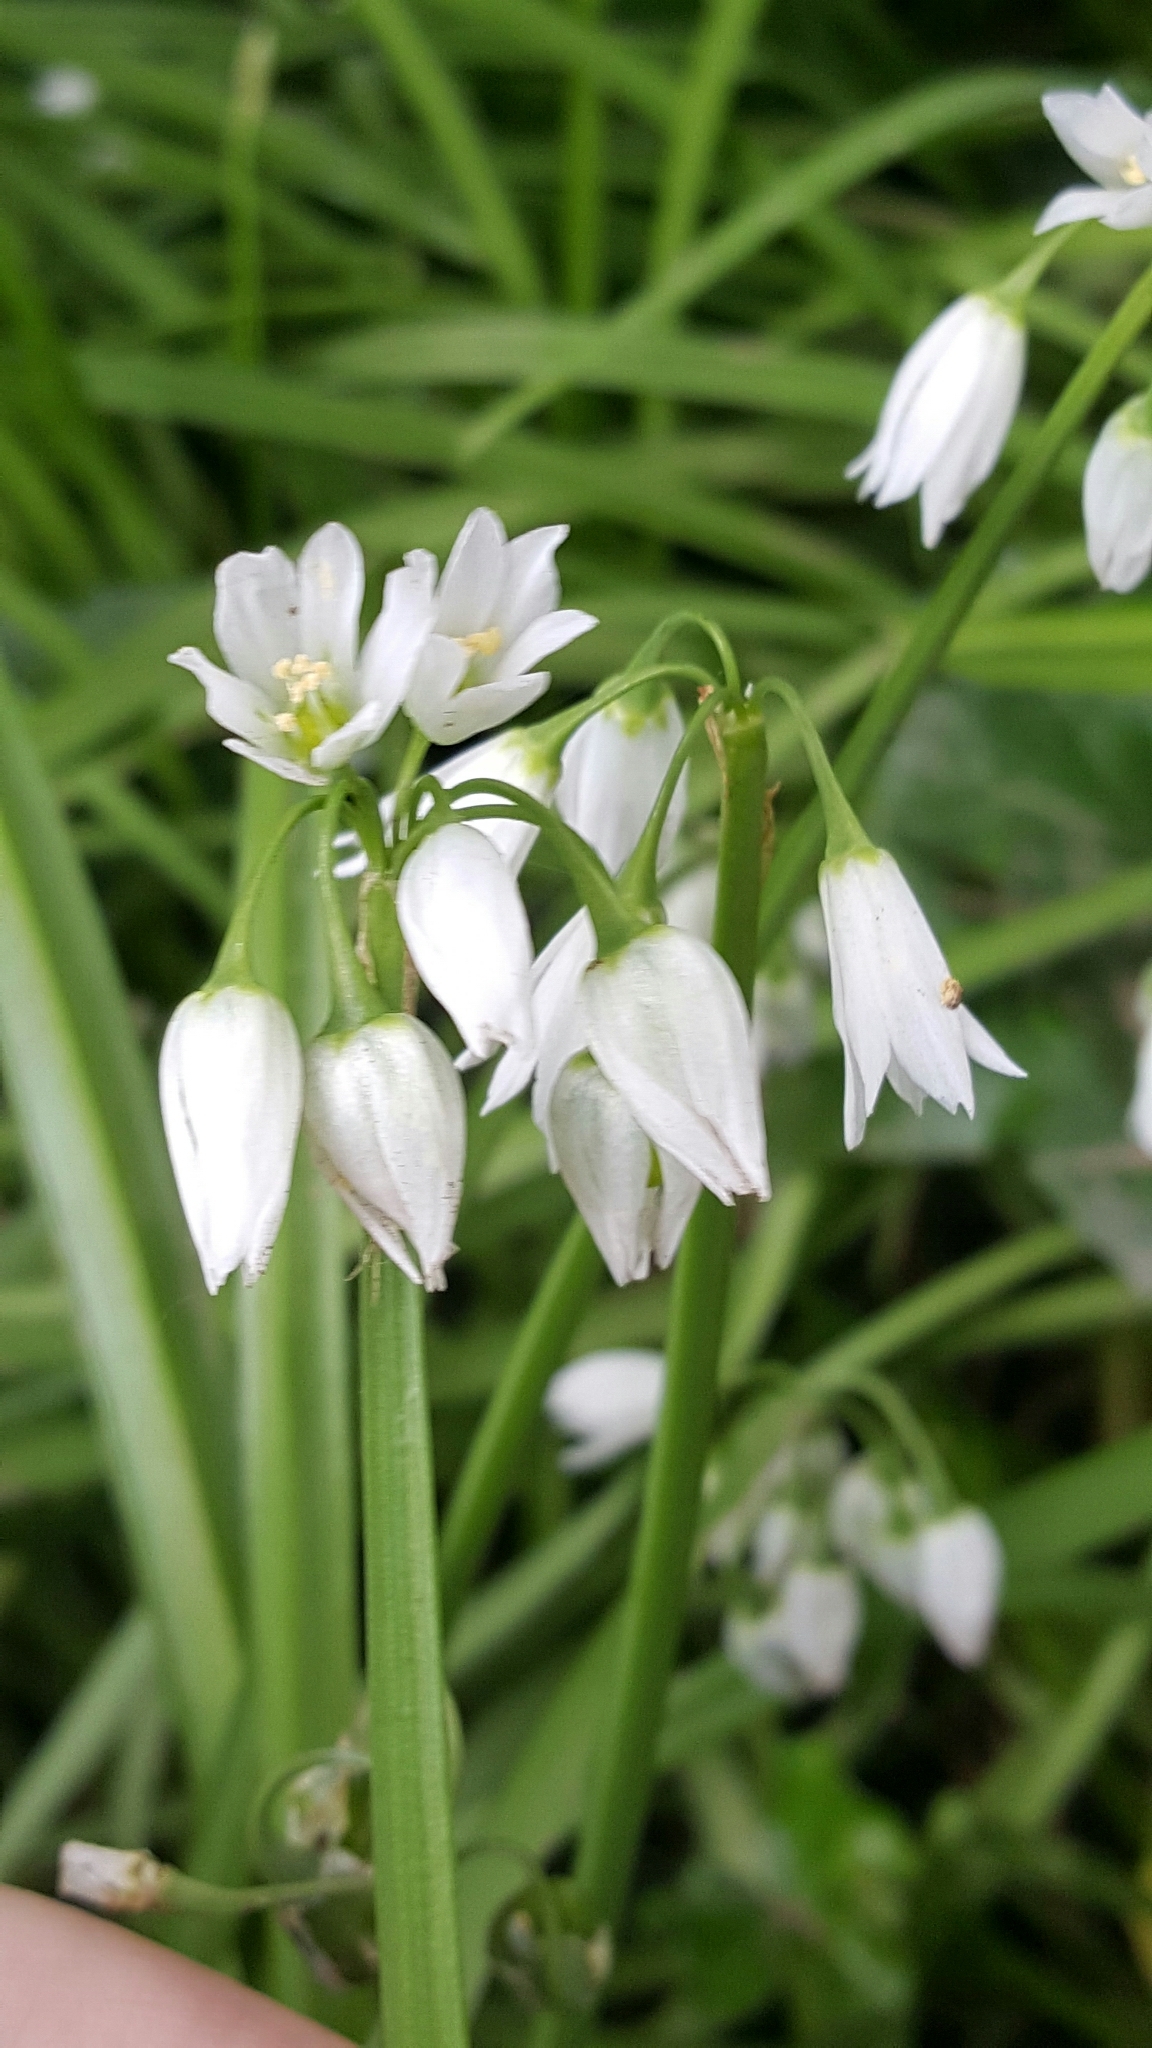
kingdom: Plantae
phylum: Tracheophyta
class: Liliopsida
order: Asparagales
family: Amaryllidaceae
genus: Allium
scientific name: Allium triquetrum
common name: Three-cornered garlic
